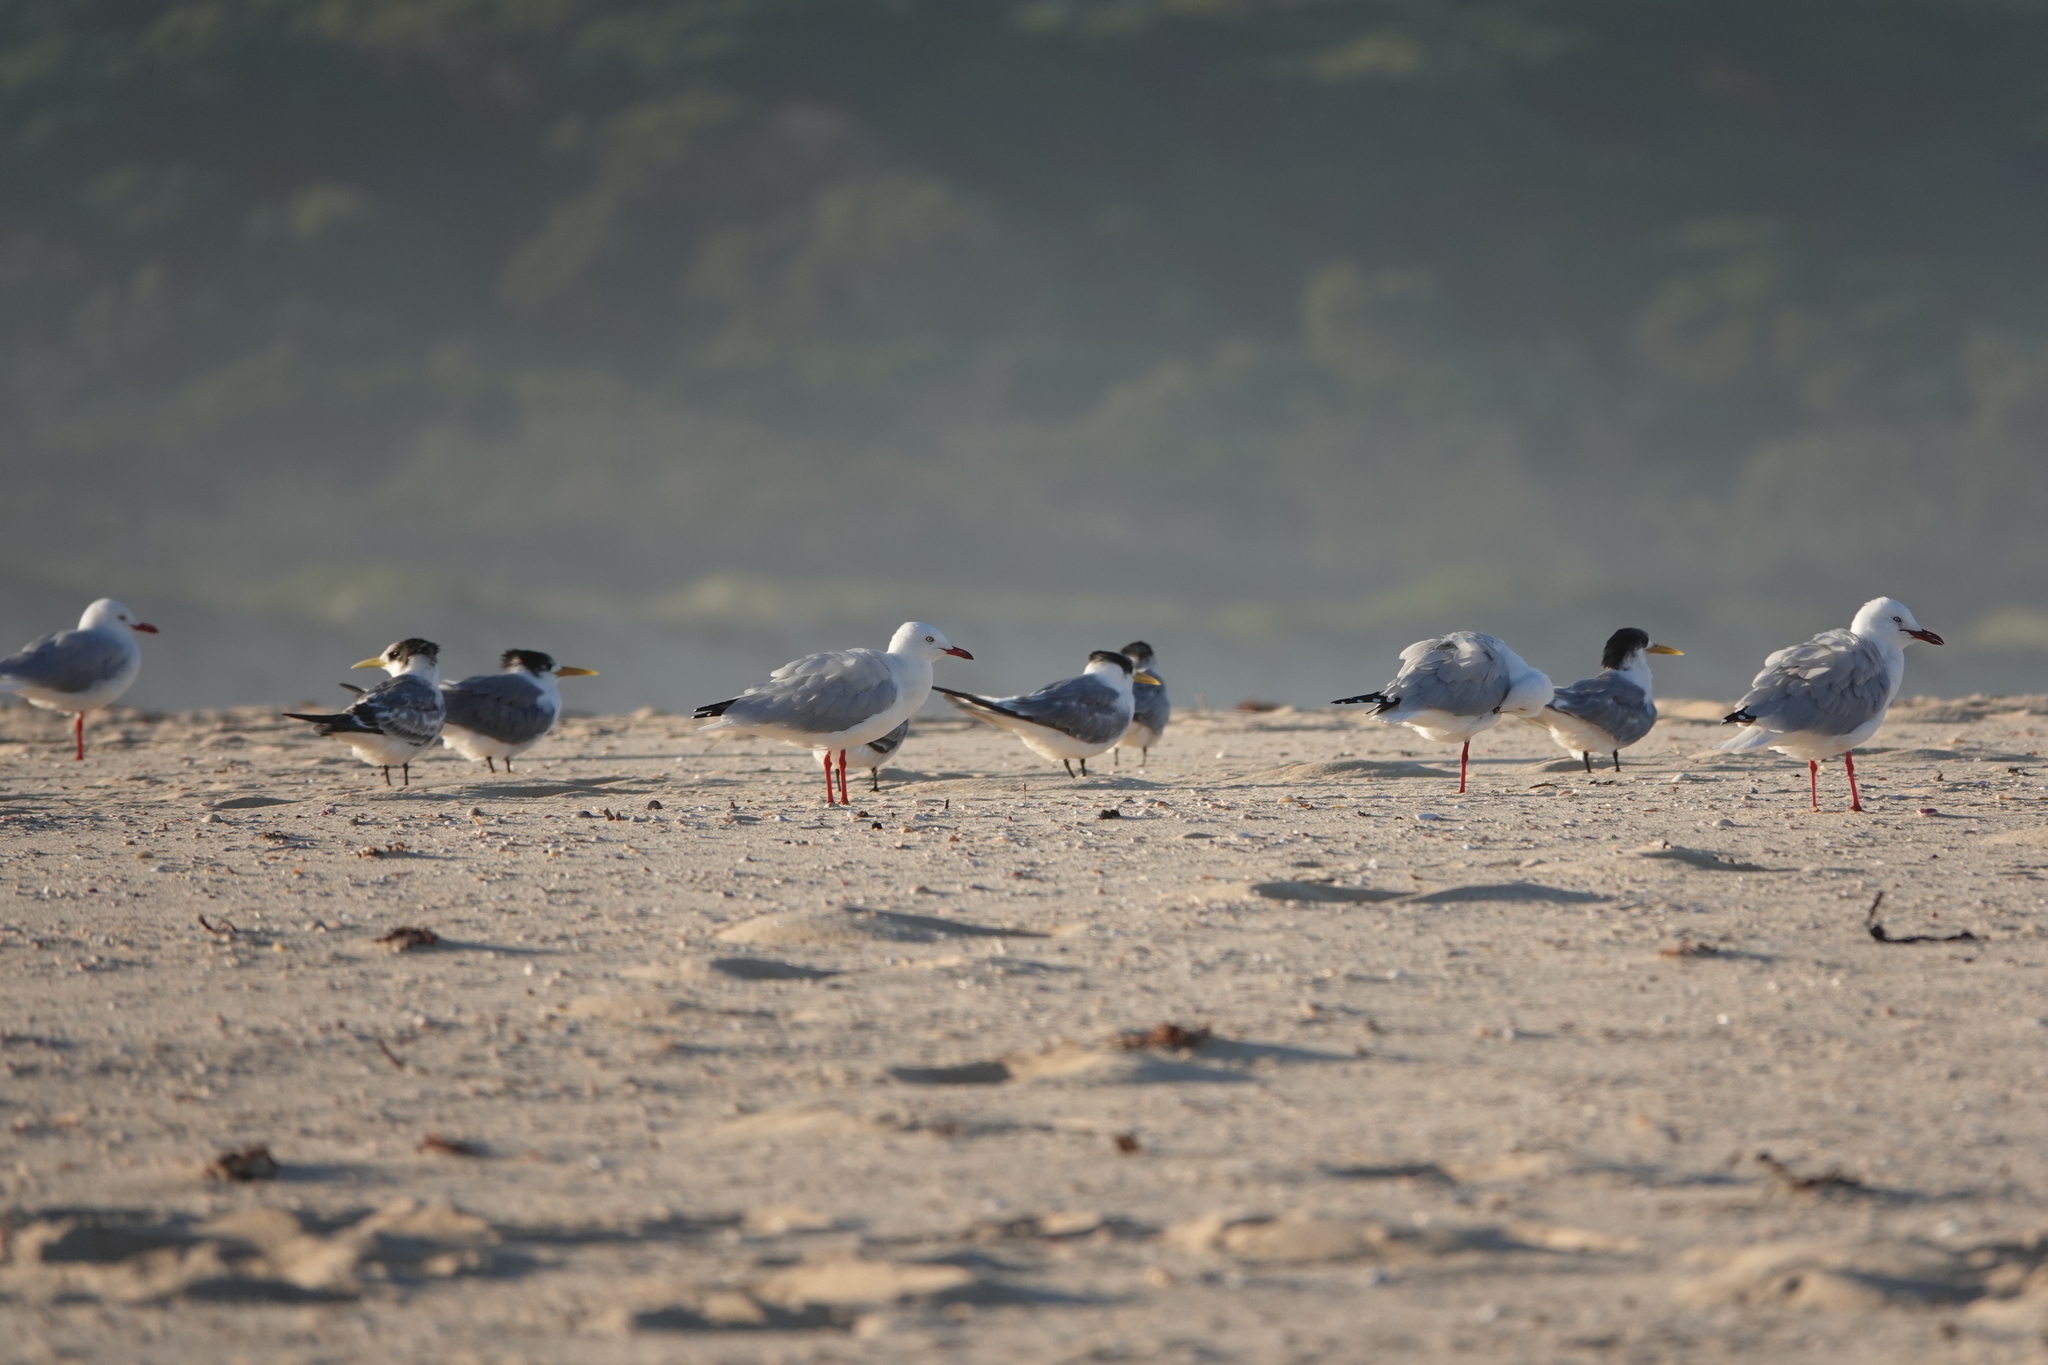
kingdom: Animalia
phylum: Chordata
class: Aves
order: Charadriiformes
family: Laridae
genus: Thalasseus
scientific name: Thalasseus bergii
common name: Greater crested tern
